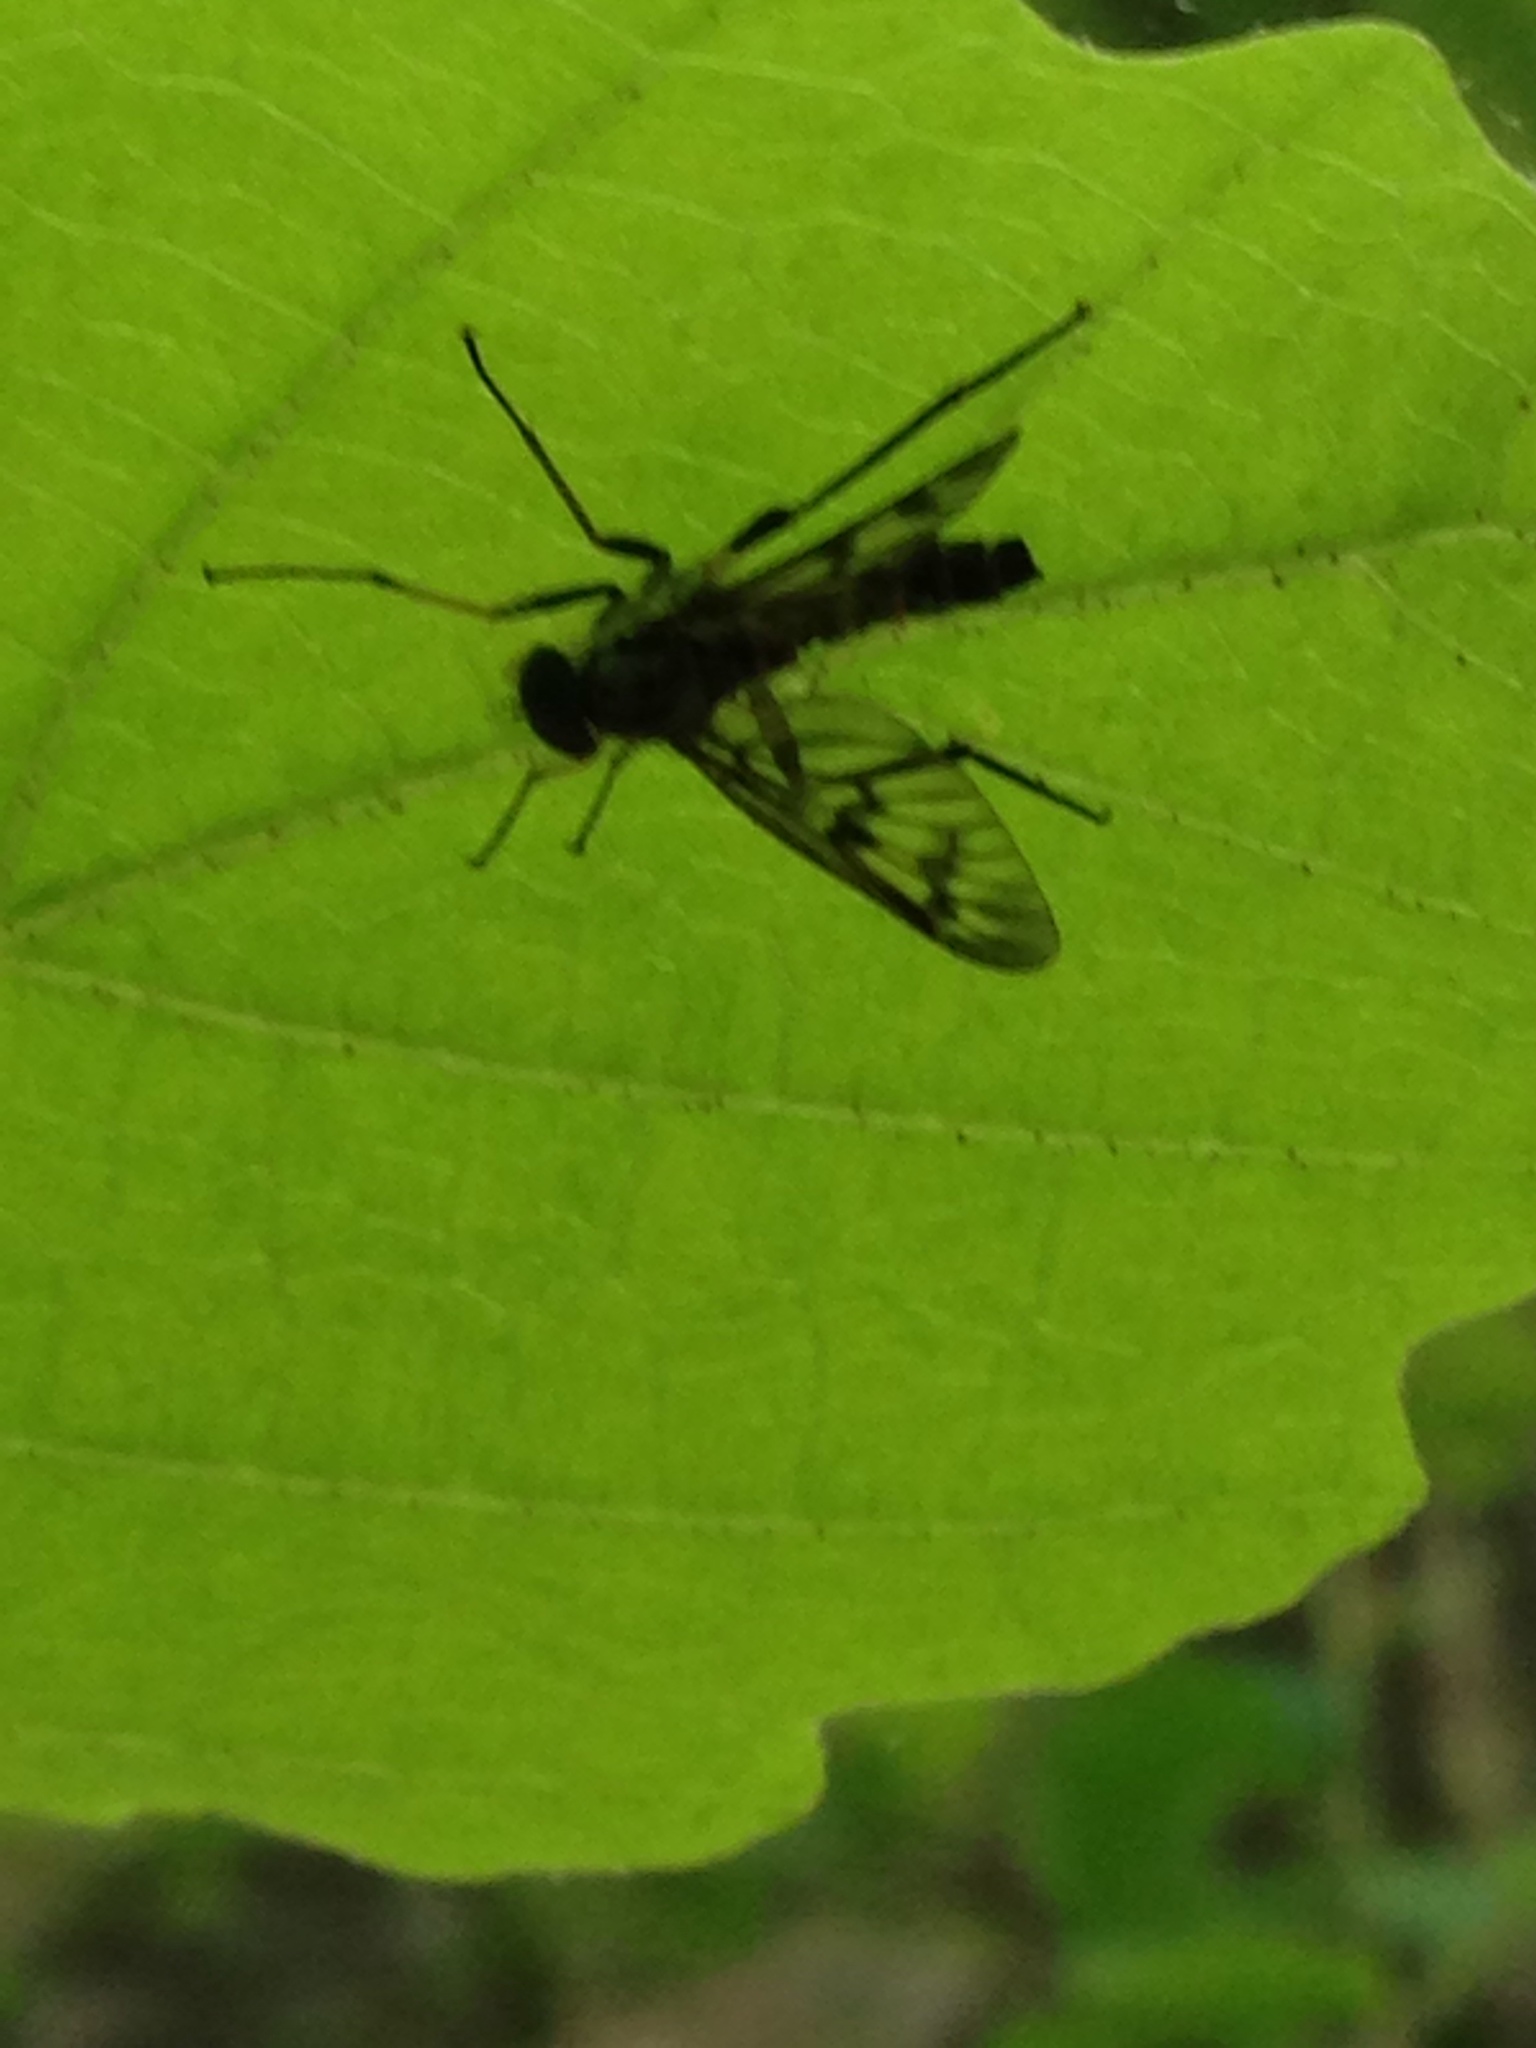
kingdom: Animalia
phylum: Arthropoda
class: Insecta
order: Diptera
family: Rhagionidae
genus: Rhagio
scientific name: Rhagio mystaceus
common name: Common snipe fly
